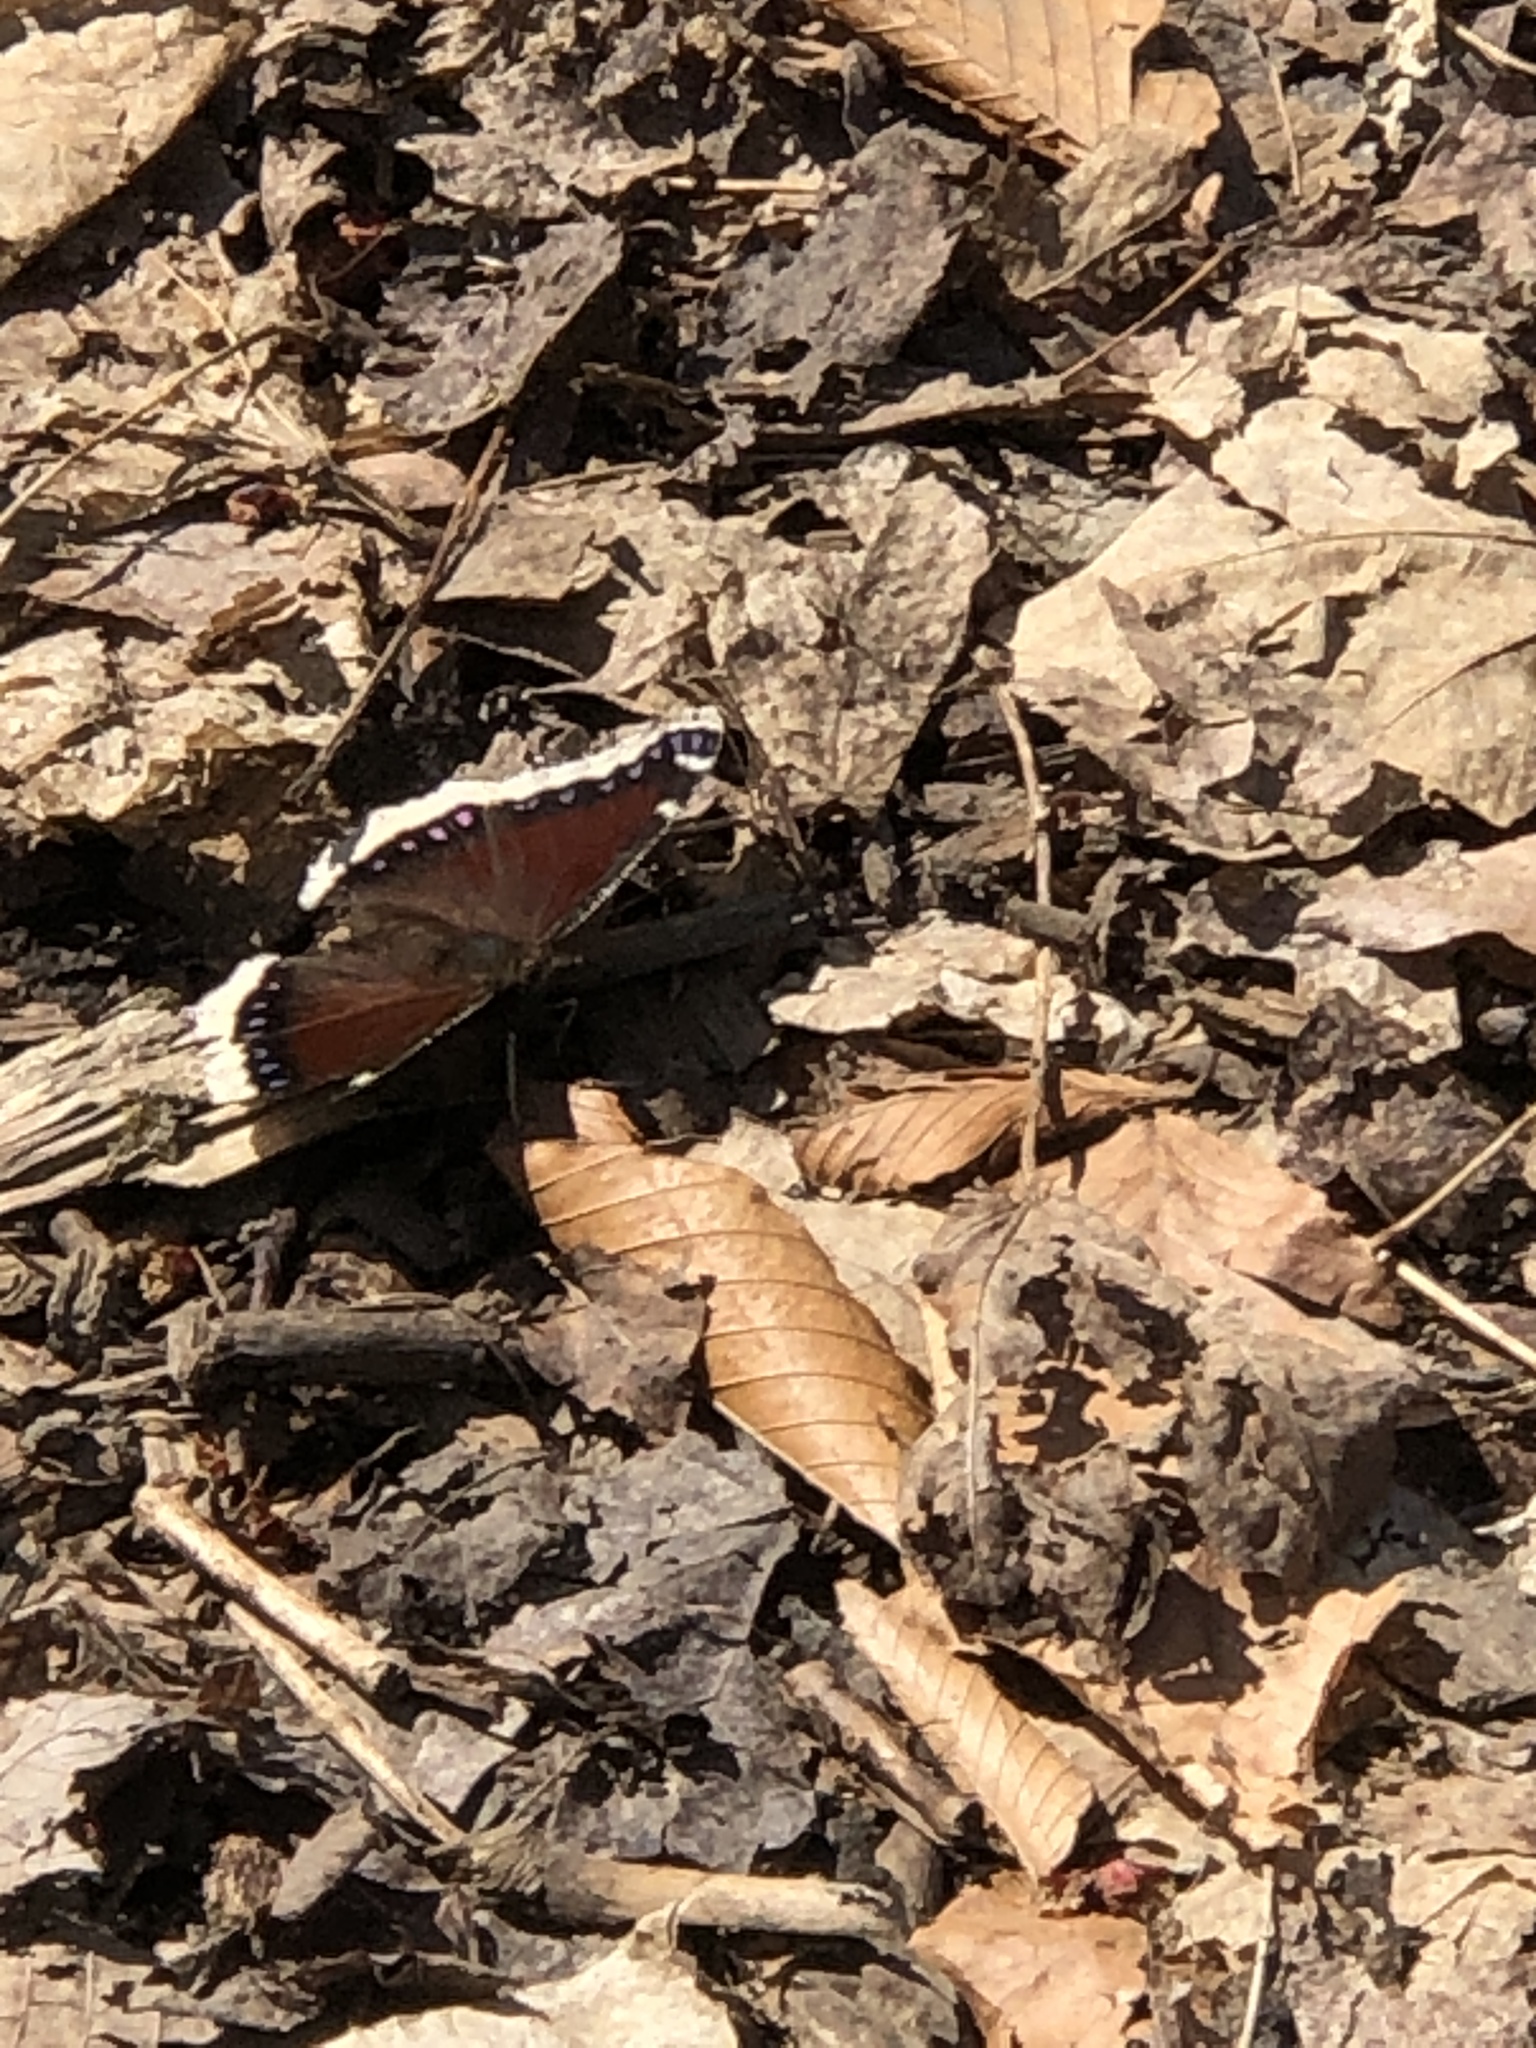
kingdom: Animalia
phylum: Arthropoda
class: Insecta
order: Lepidoptera
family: Nymphalidae
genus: Nymphalis
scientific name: Nymphalis antiopa
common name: Camberwell beauty
